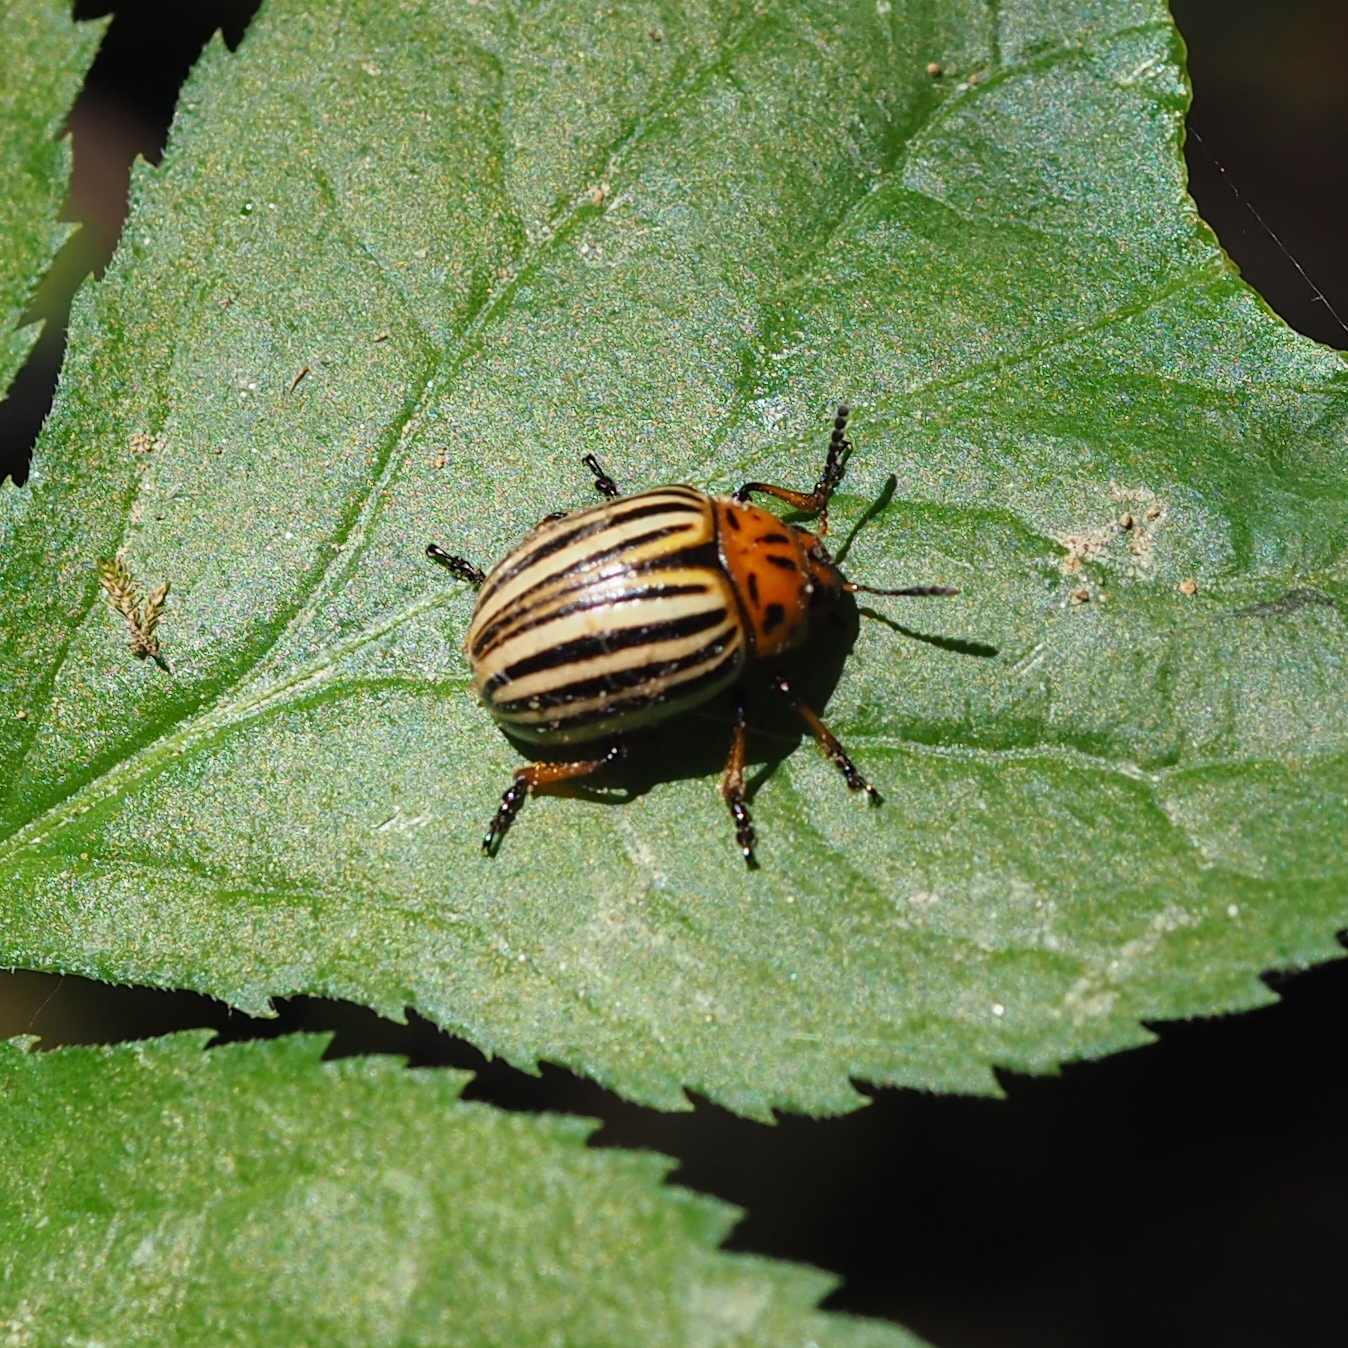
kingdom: Animalia
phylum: Arthropoda
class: Insecta
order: Coleoptera
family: Chrysomelidae
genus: Leptinotarsa
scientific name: Leptinotarsa decemlineata
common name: Colorado potato beetle
